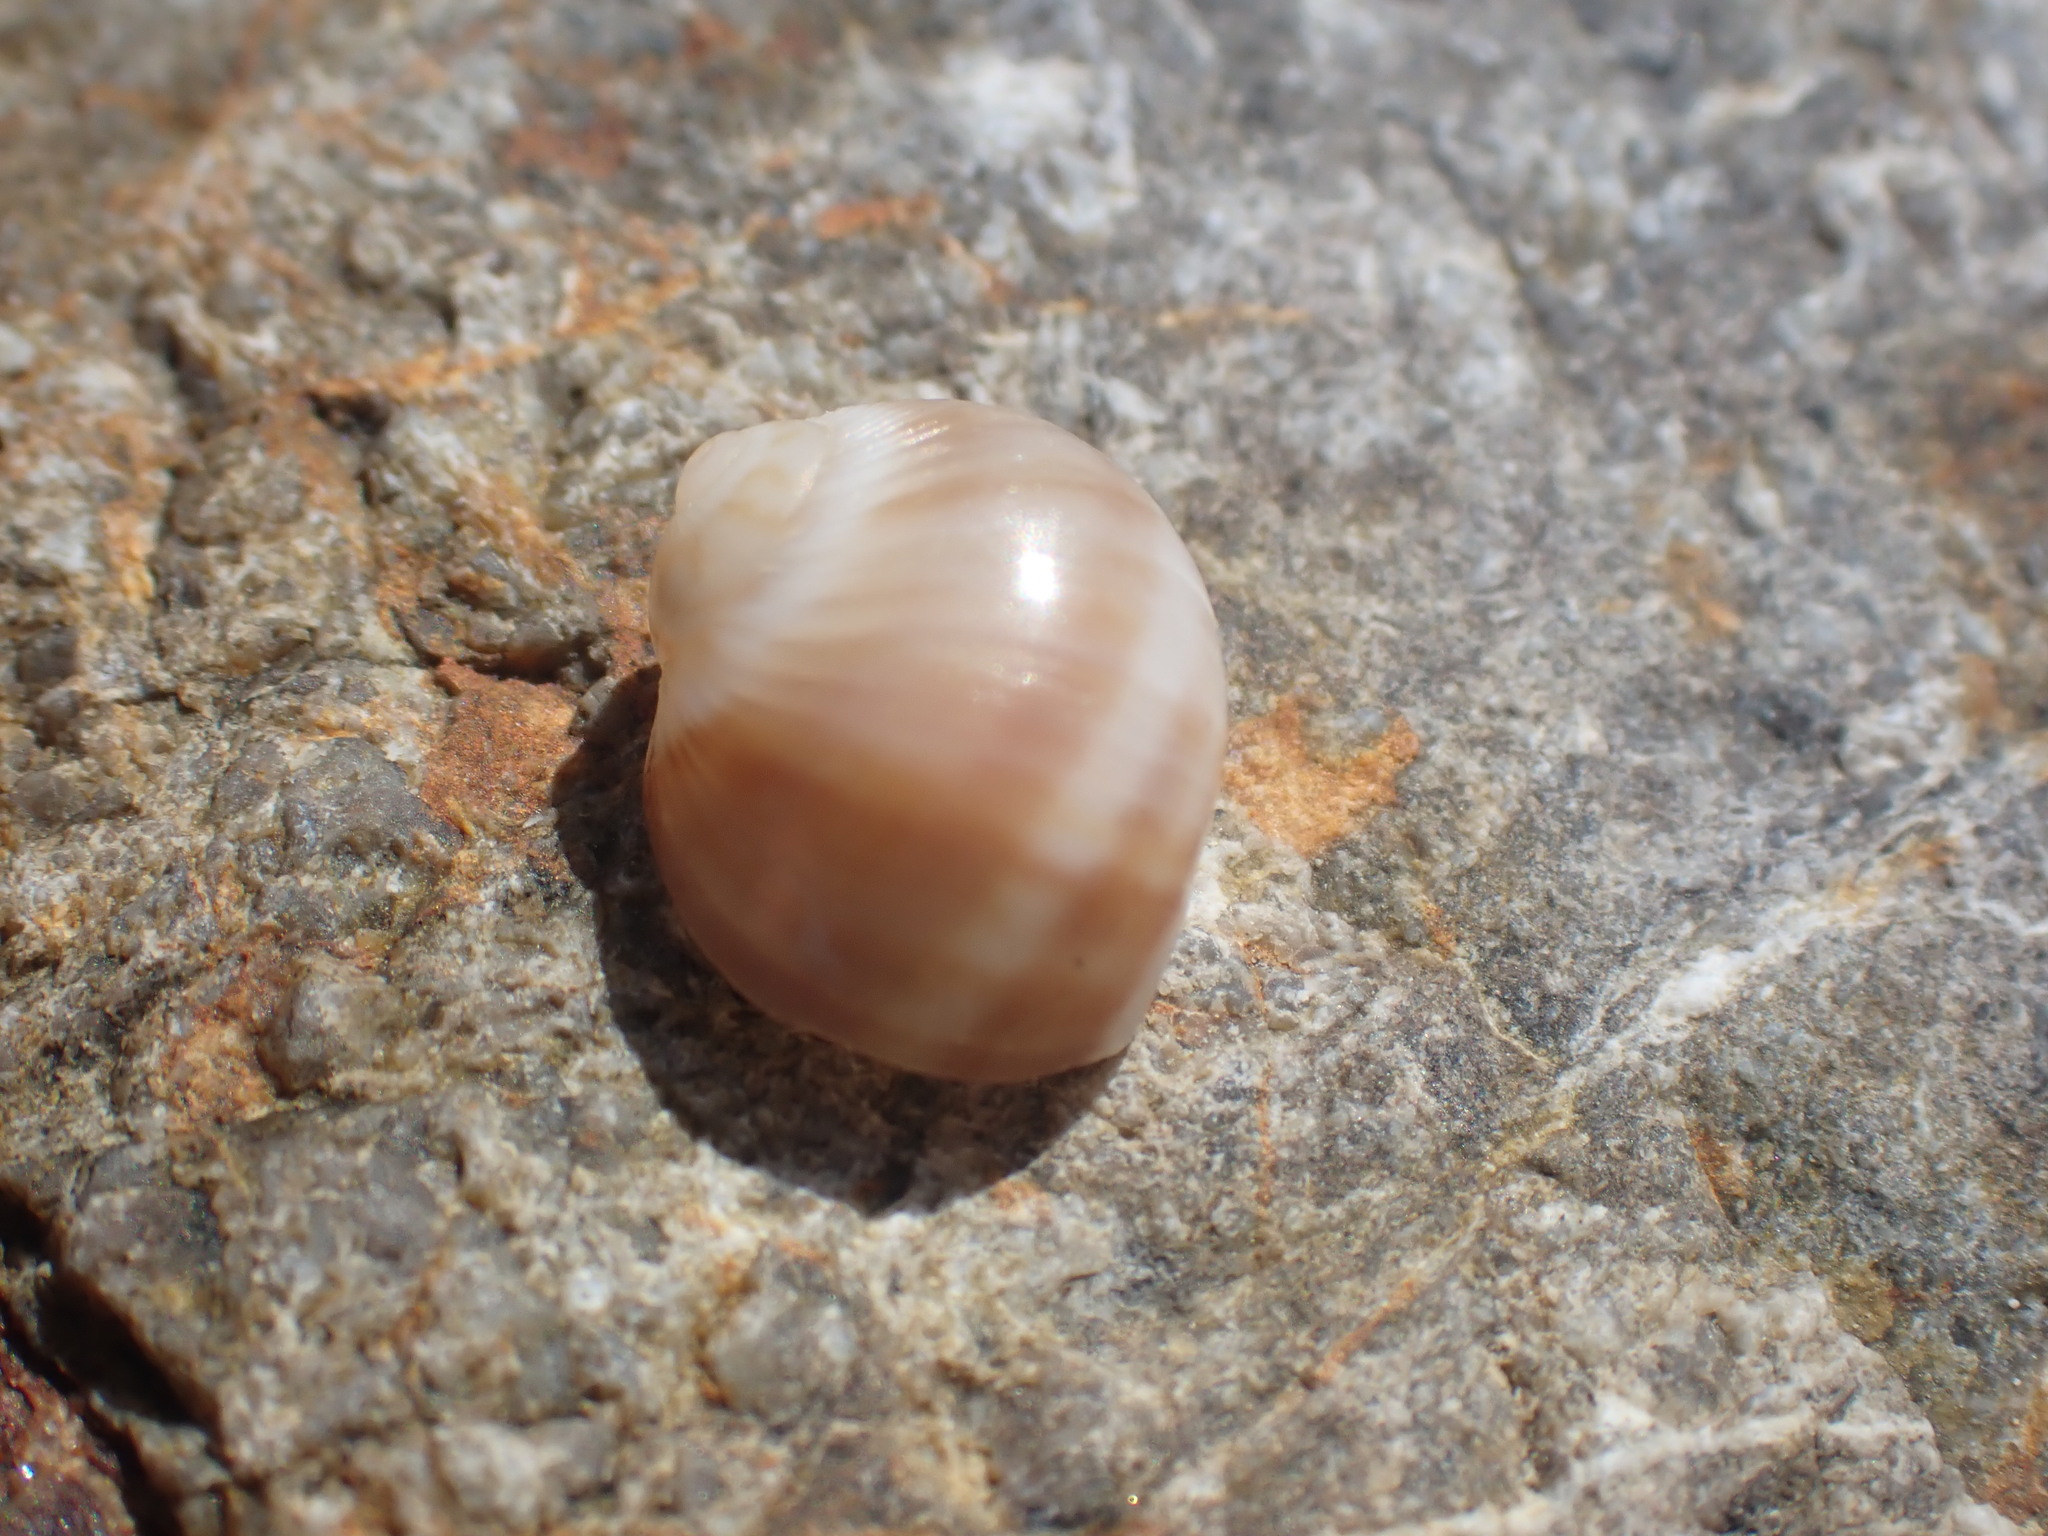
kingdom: Animalia
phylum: Mollusca
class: Gastropoda
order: Littorinimorpha
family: Naticidae
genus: Notocochlis
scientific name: Notocochlis gualteriana
